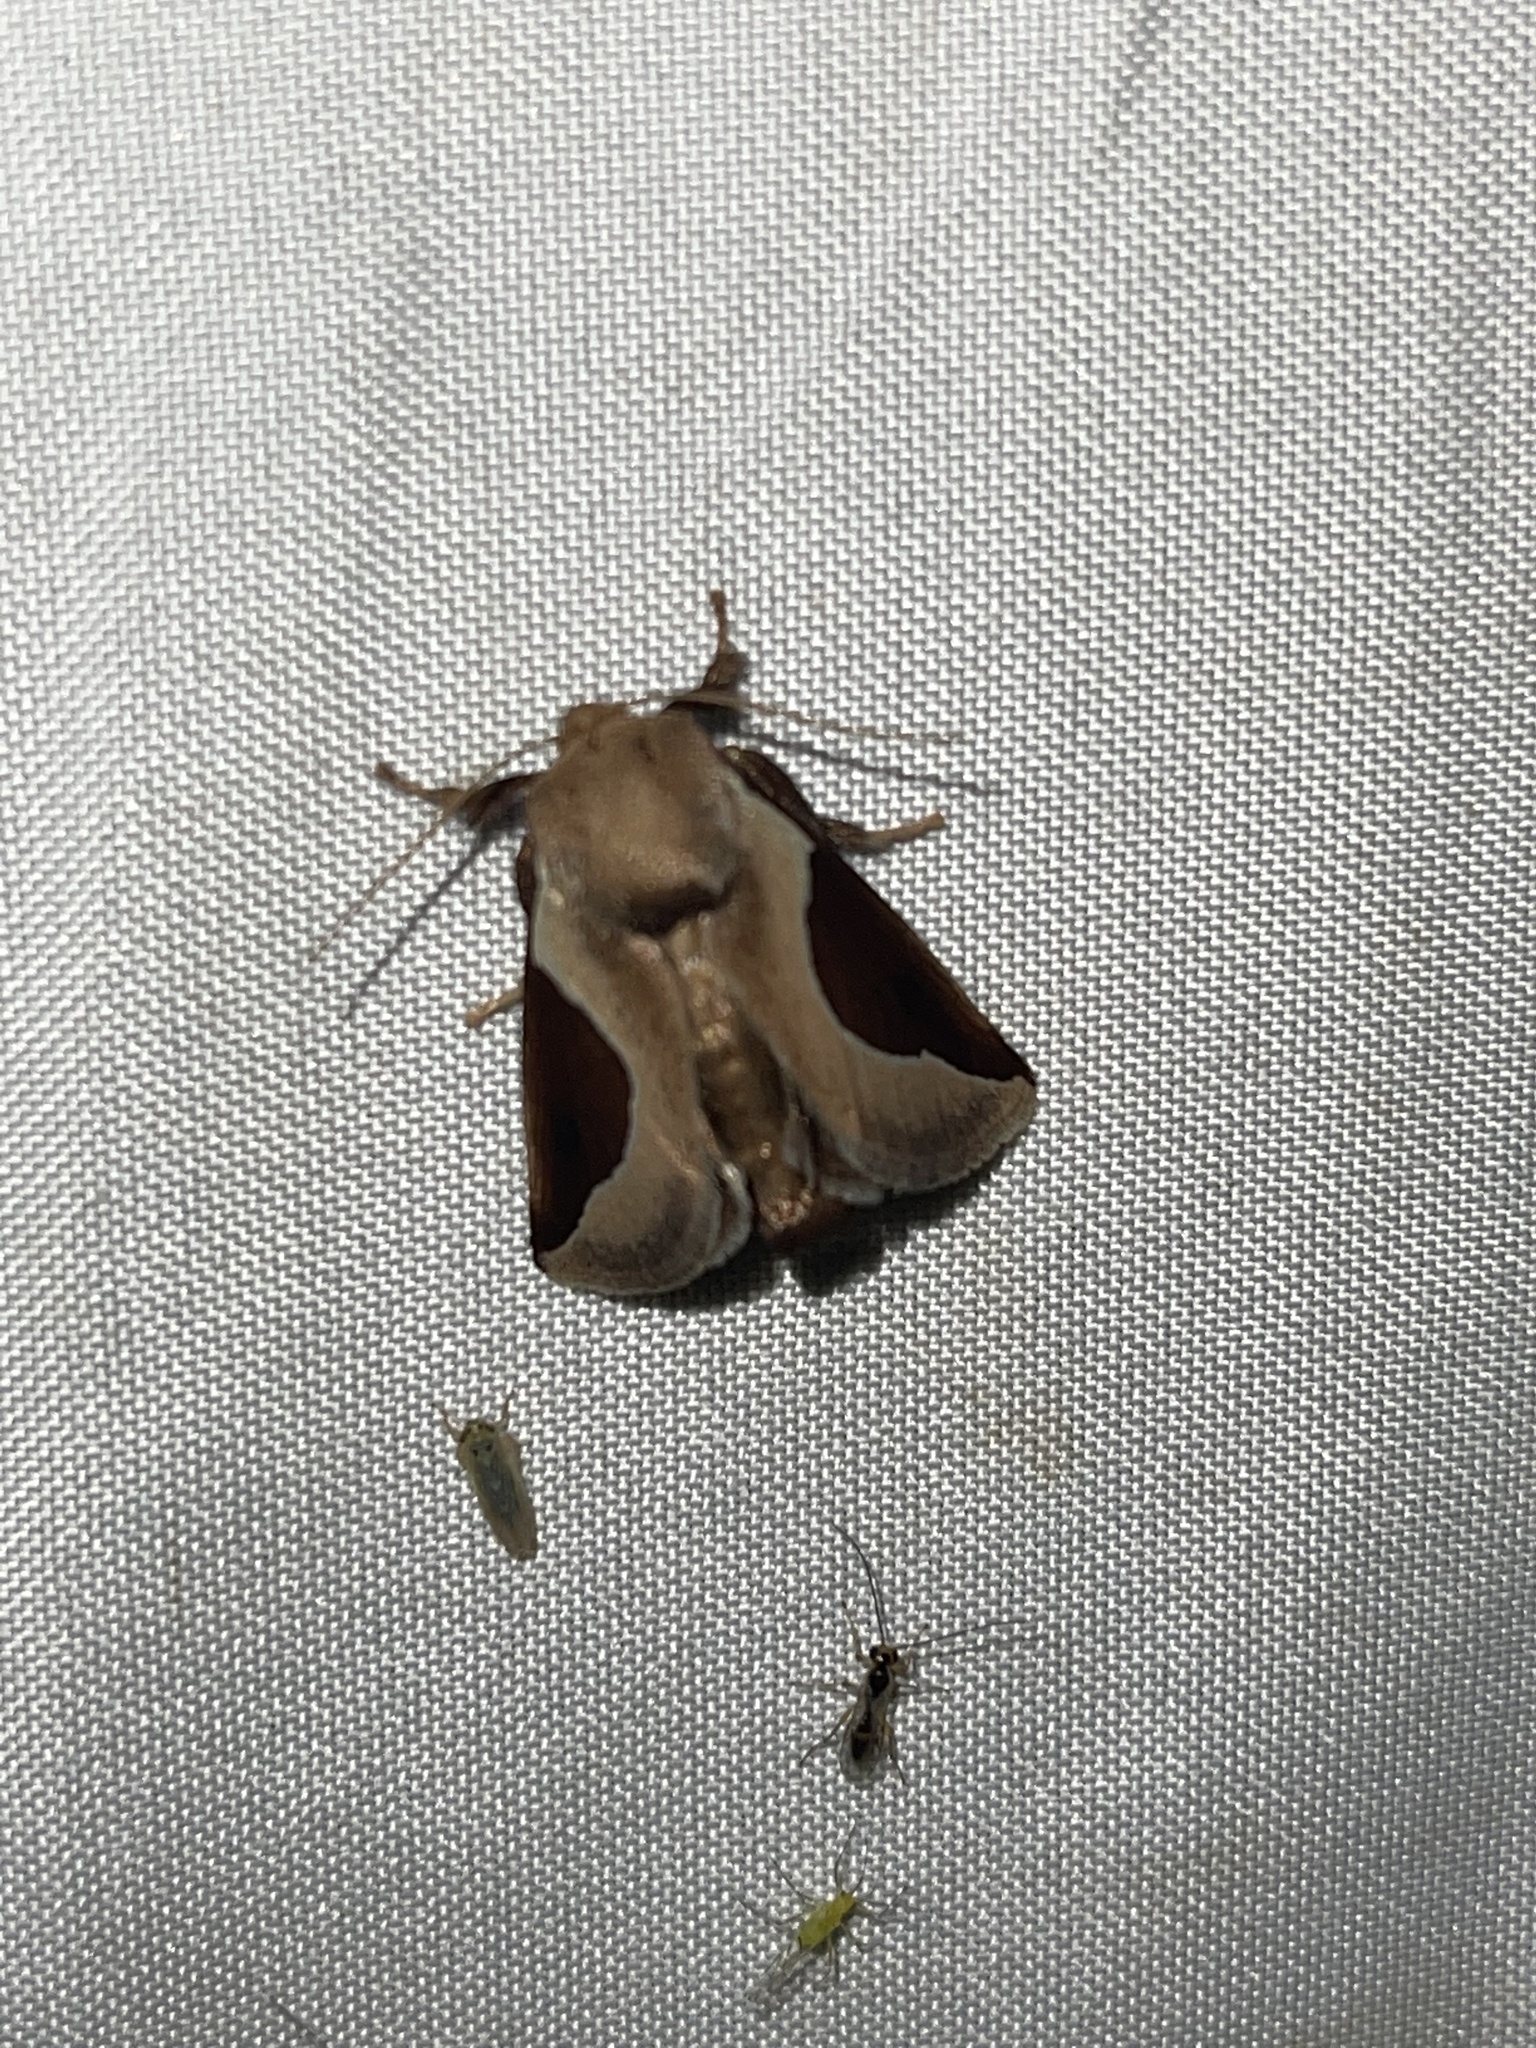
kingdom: Animalia
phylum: Arthropoda
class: Insecta
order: Lepidoptera
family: Limacodidae
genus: Prolimacodes
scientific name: Prolimacodes badia
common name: Skiff moth
